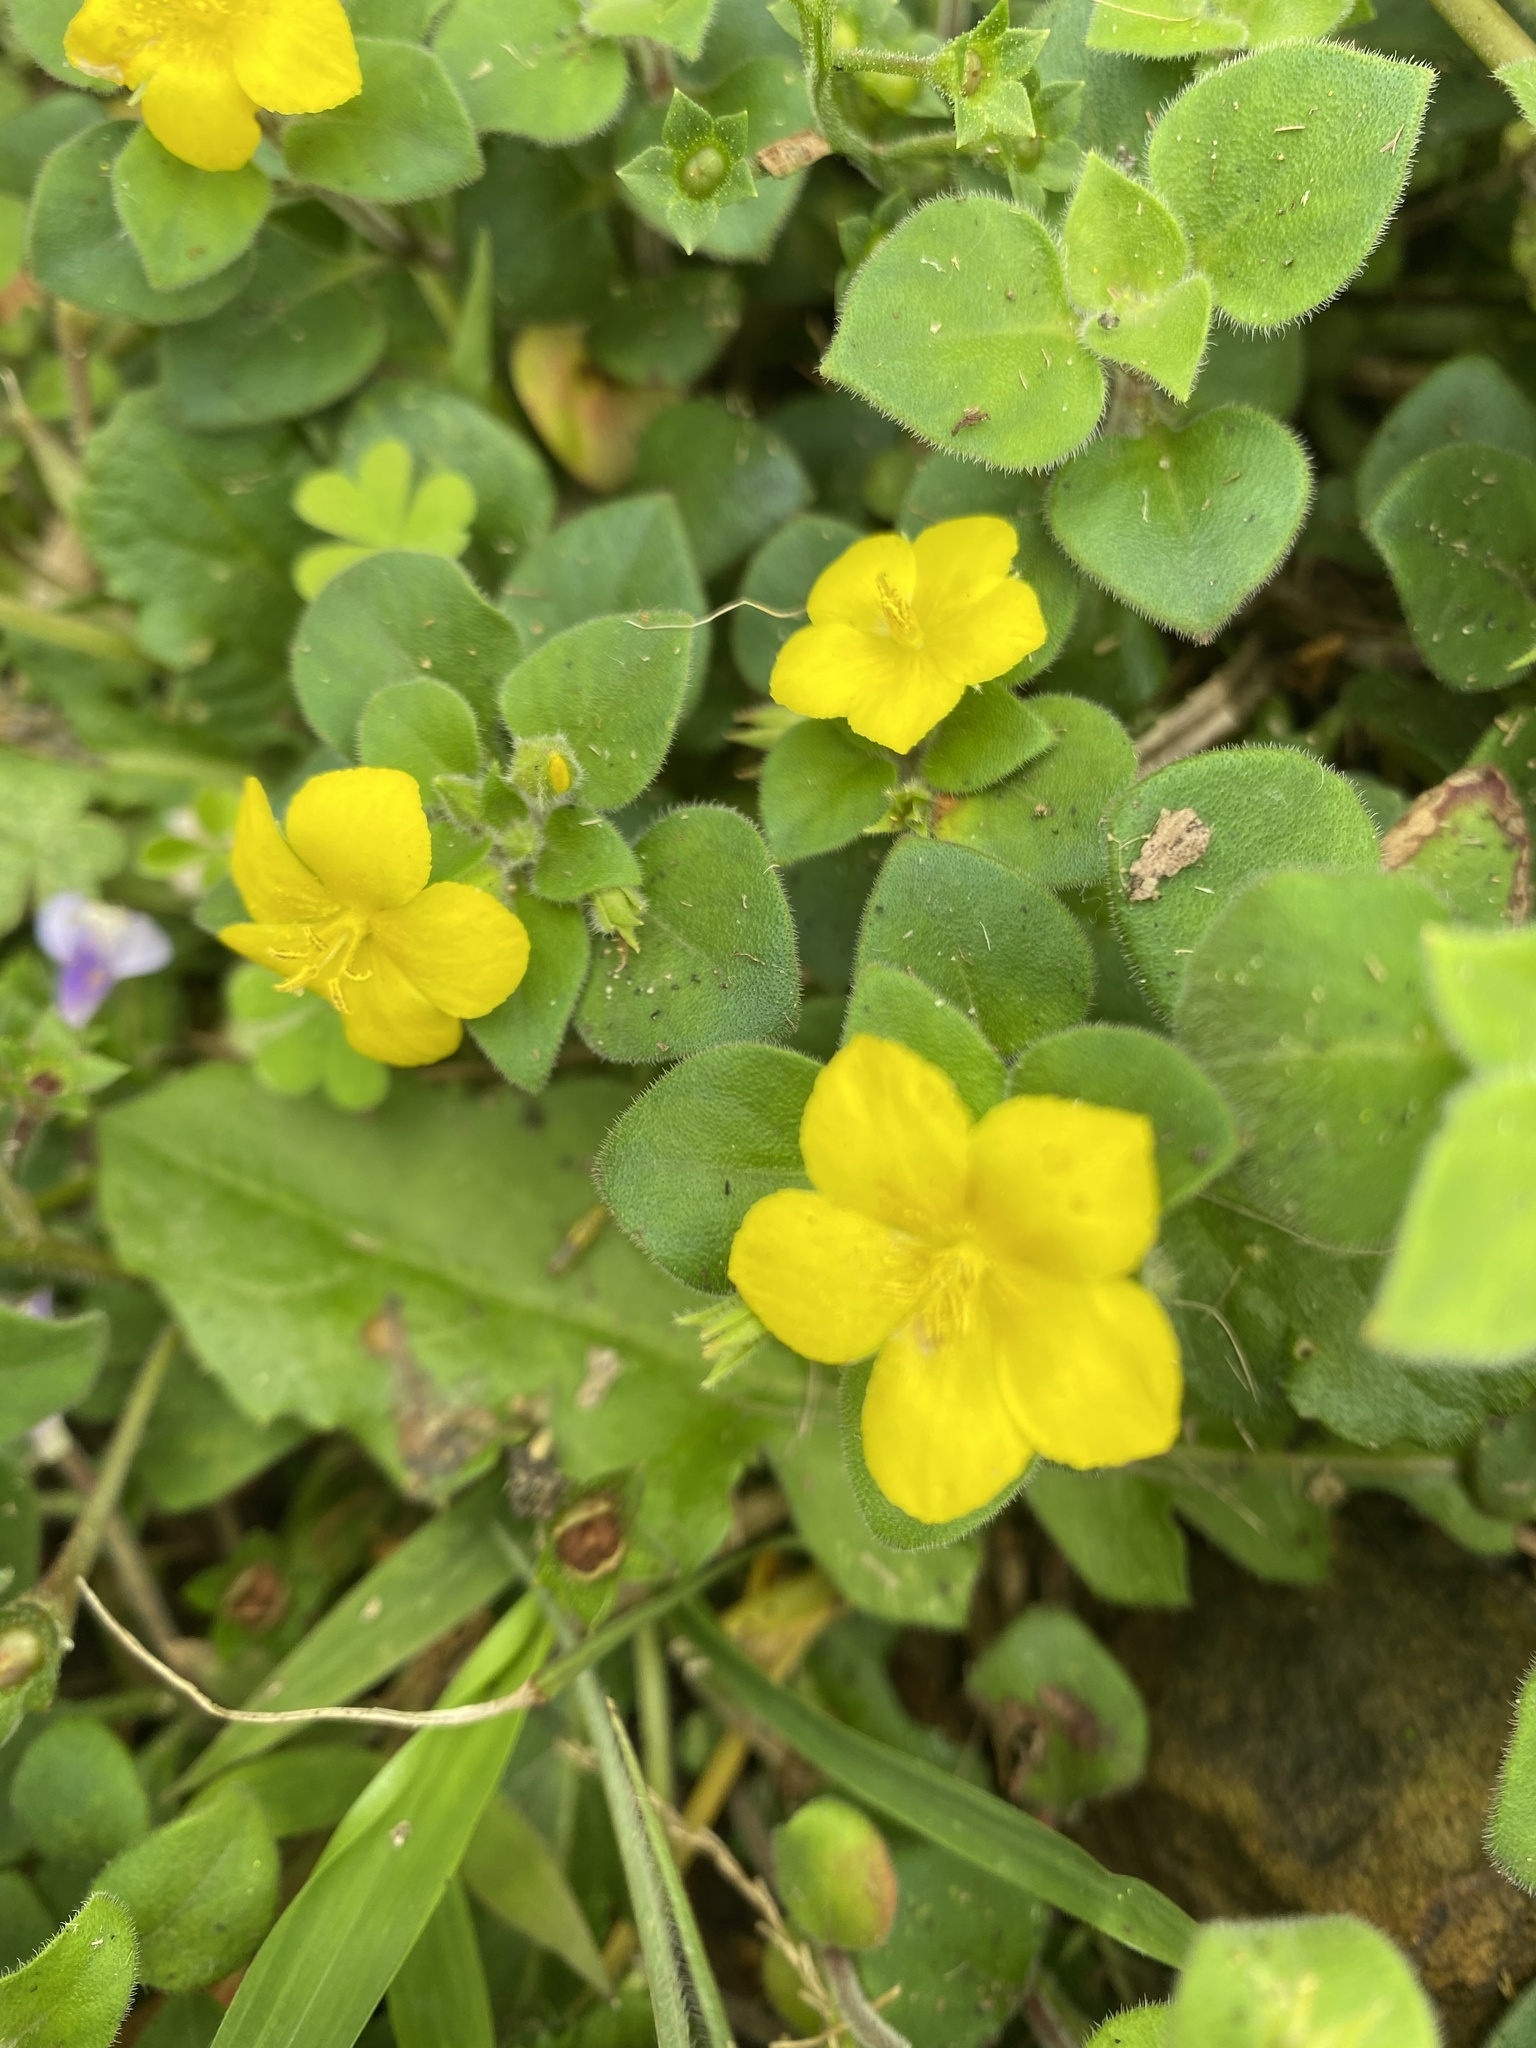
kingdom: Plantae
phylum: Tracheophyta
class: Magnoliopsida
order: Ericales
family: Primulaceae
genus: Lysimachia
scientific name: Lysimachia remota
